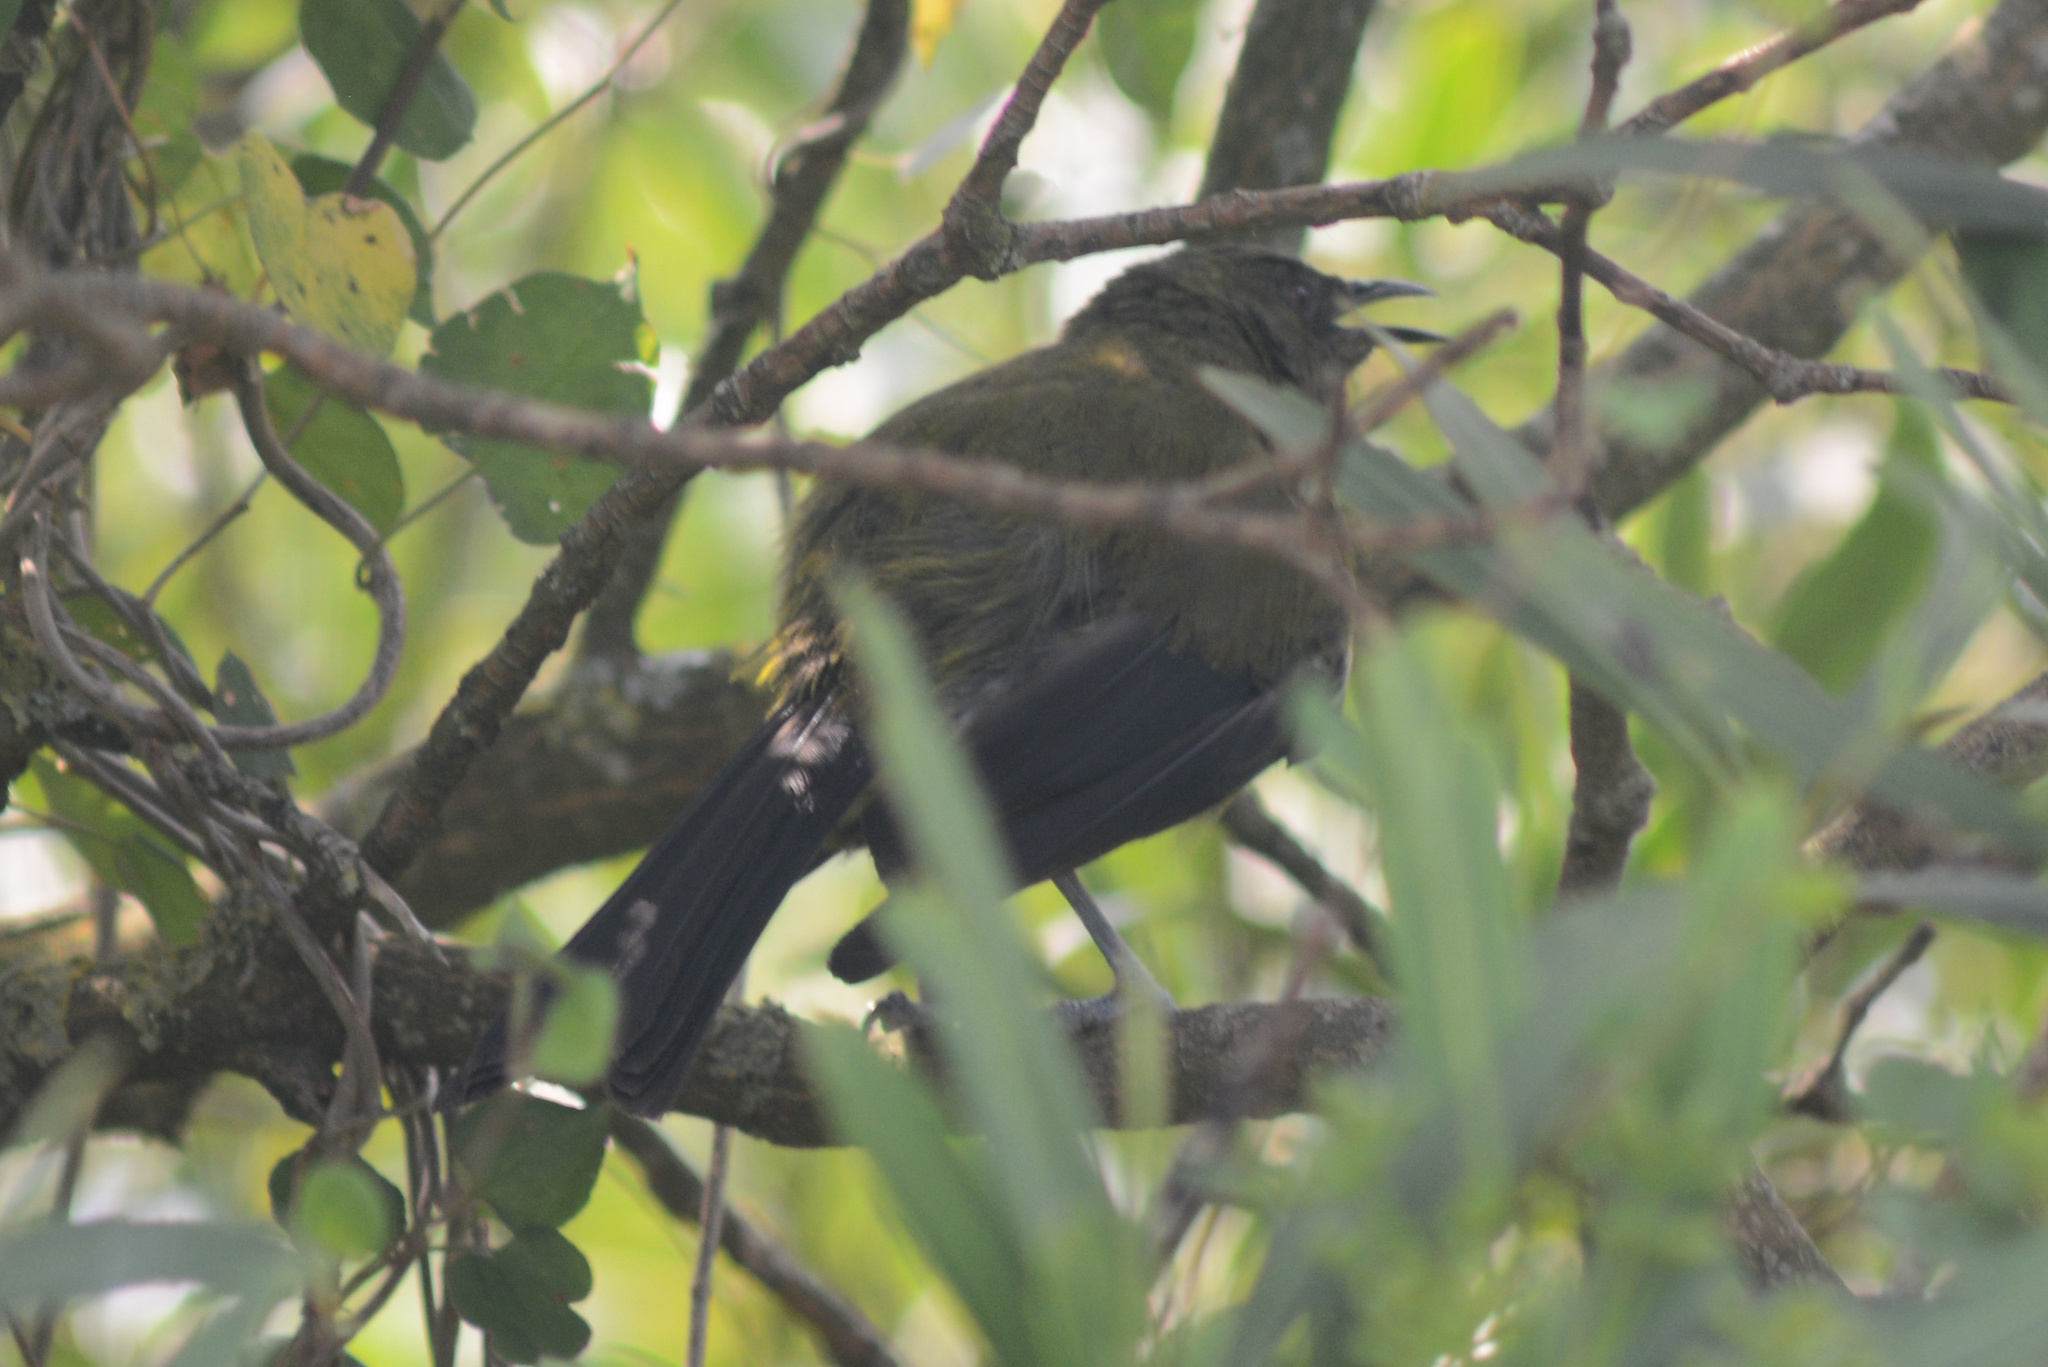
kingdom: Animalia
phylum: Chordata
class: Aves
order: Passeriformes
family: Meliphagidae
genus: Anthornis
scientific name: Anthornis melanura
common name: New zealand bellbird
